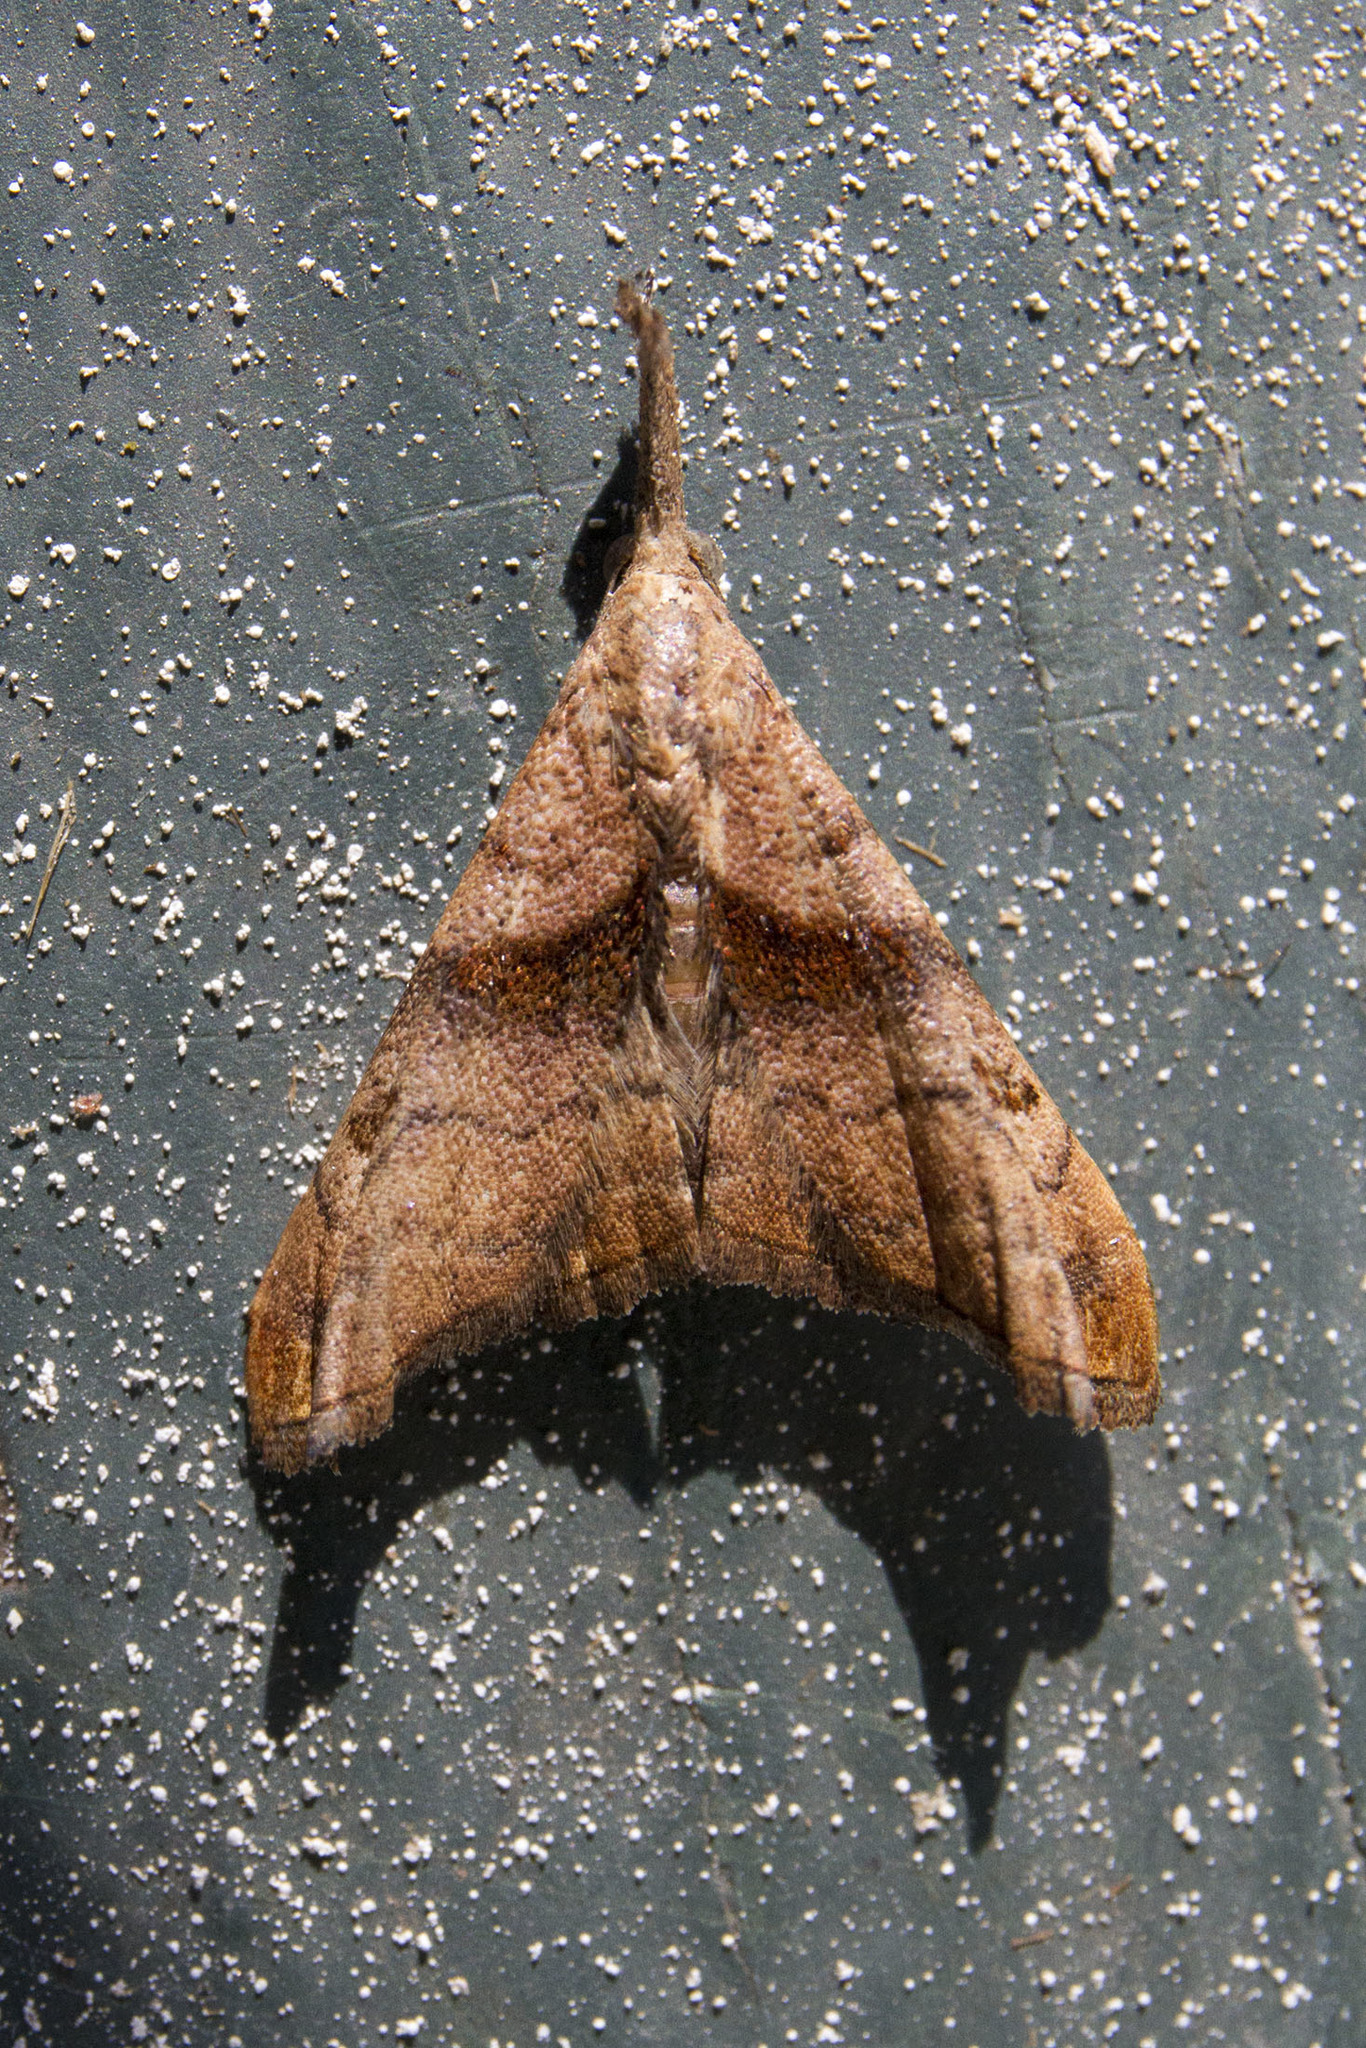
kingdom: Animalia
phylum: Arthropoda
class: Insecta
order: Lepidoptera
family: Erebidae
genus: Palthis
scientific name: Palthis angulalis
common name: Dark-spotted palthis moth
